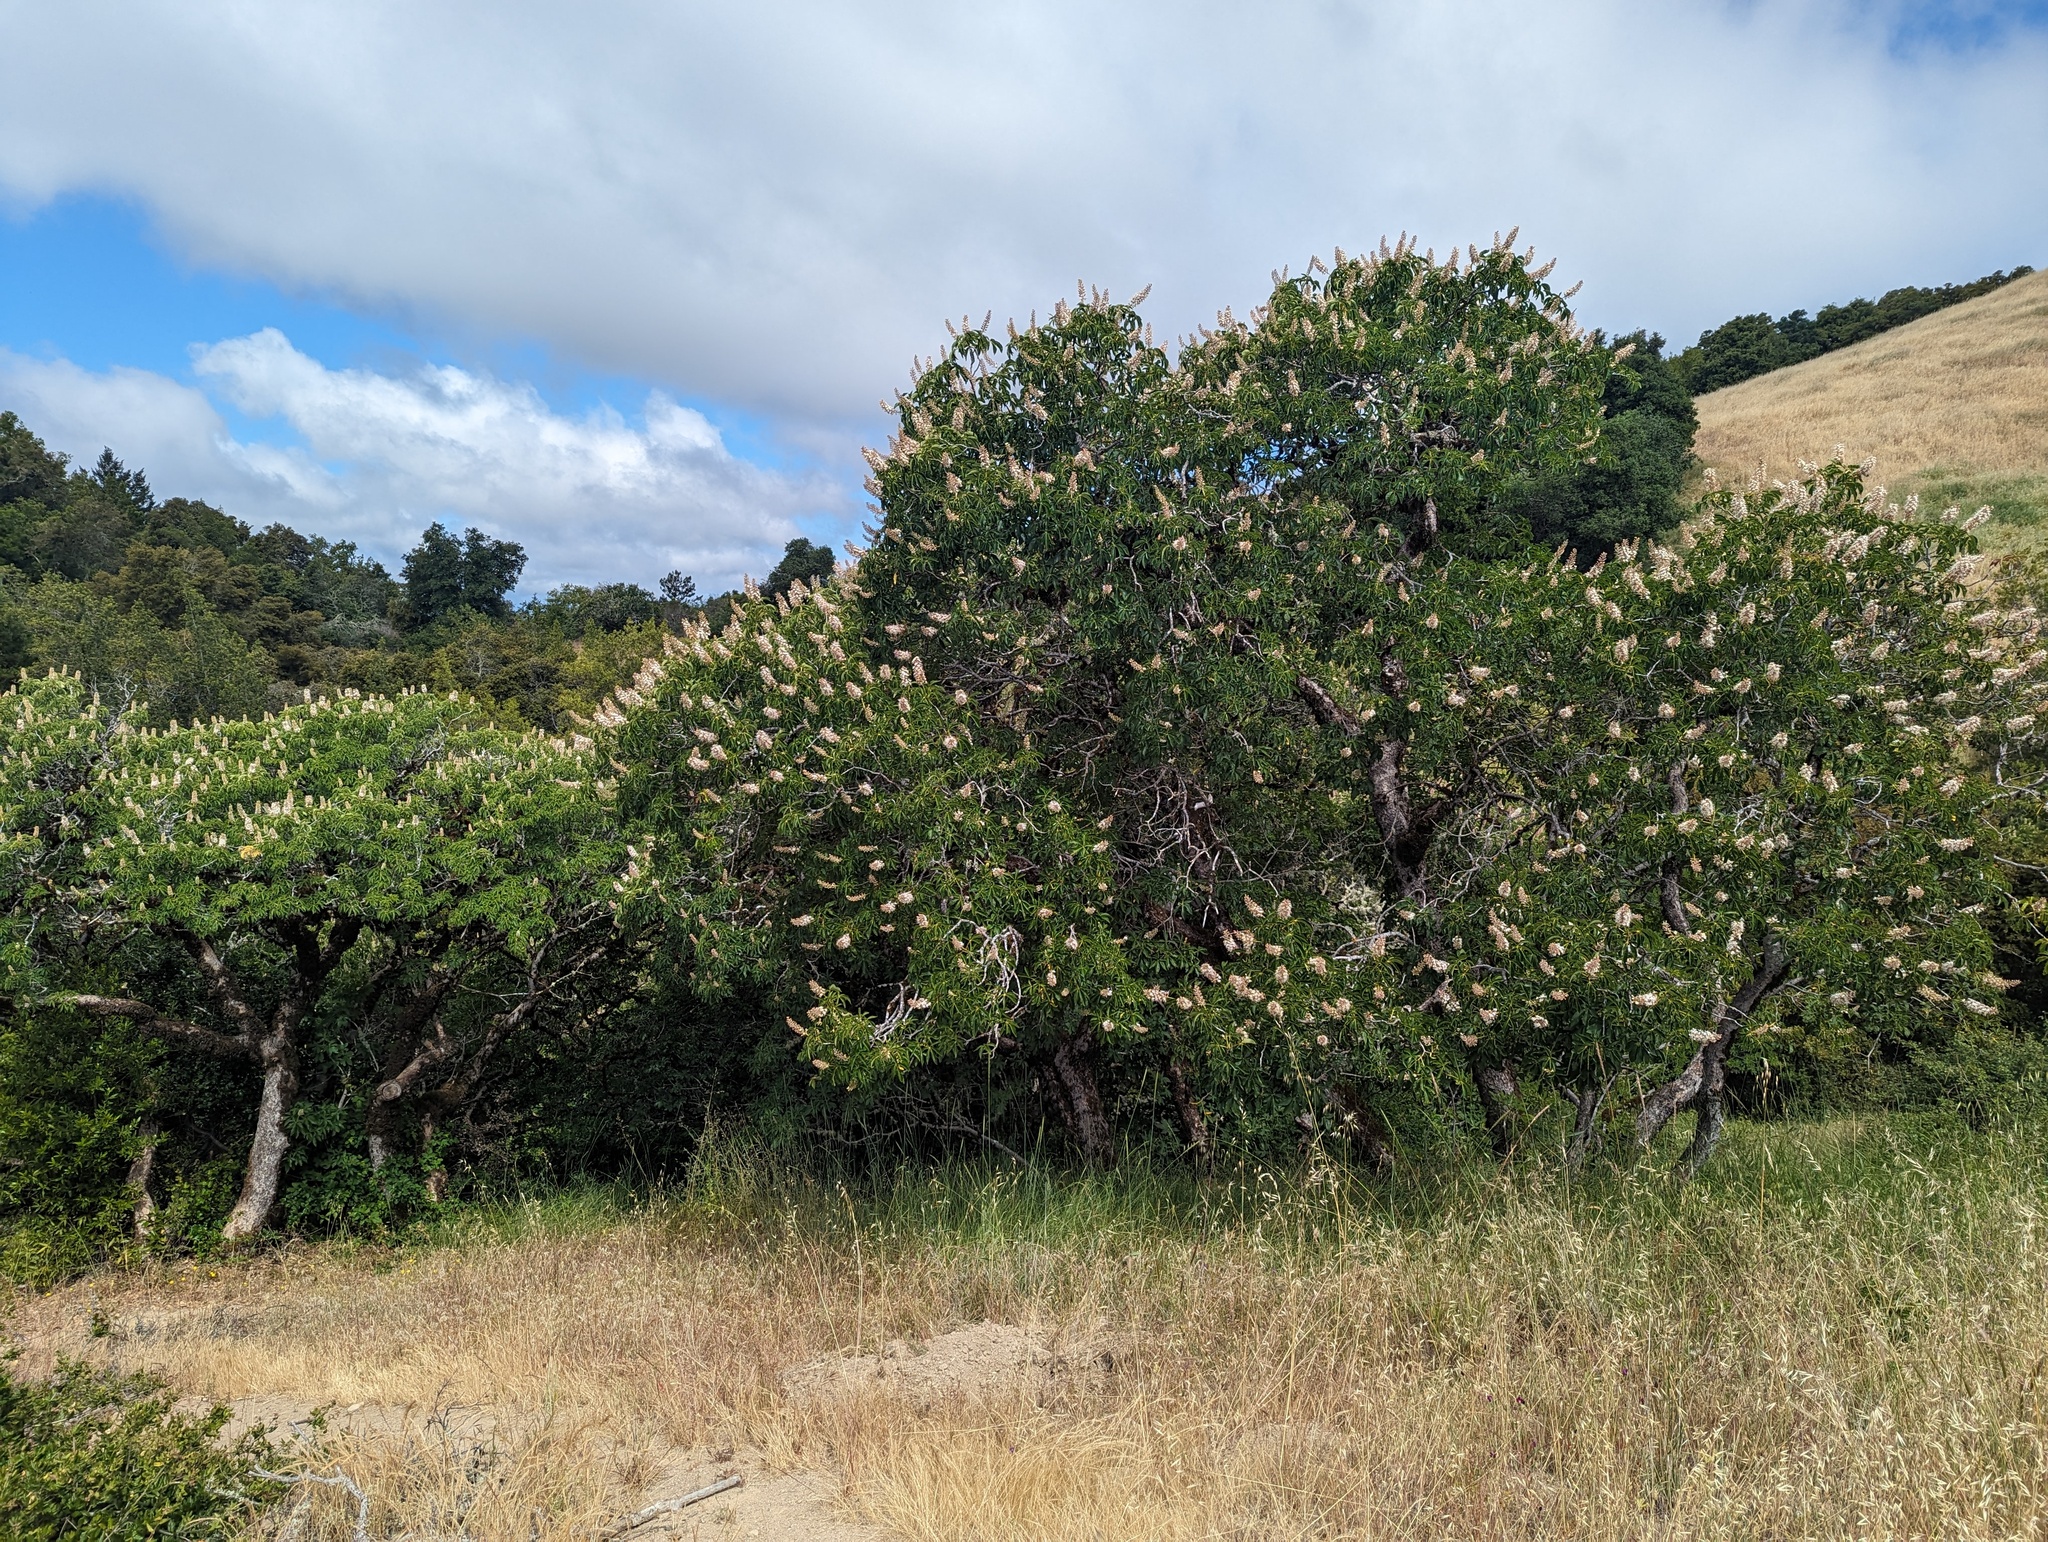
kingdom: Plantae
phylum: Tracheophyta
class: Magnoliopsida
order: Sapindales
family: Sapindaceae
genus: Aesculus
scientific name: Aesculus californica
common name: California buckeye
